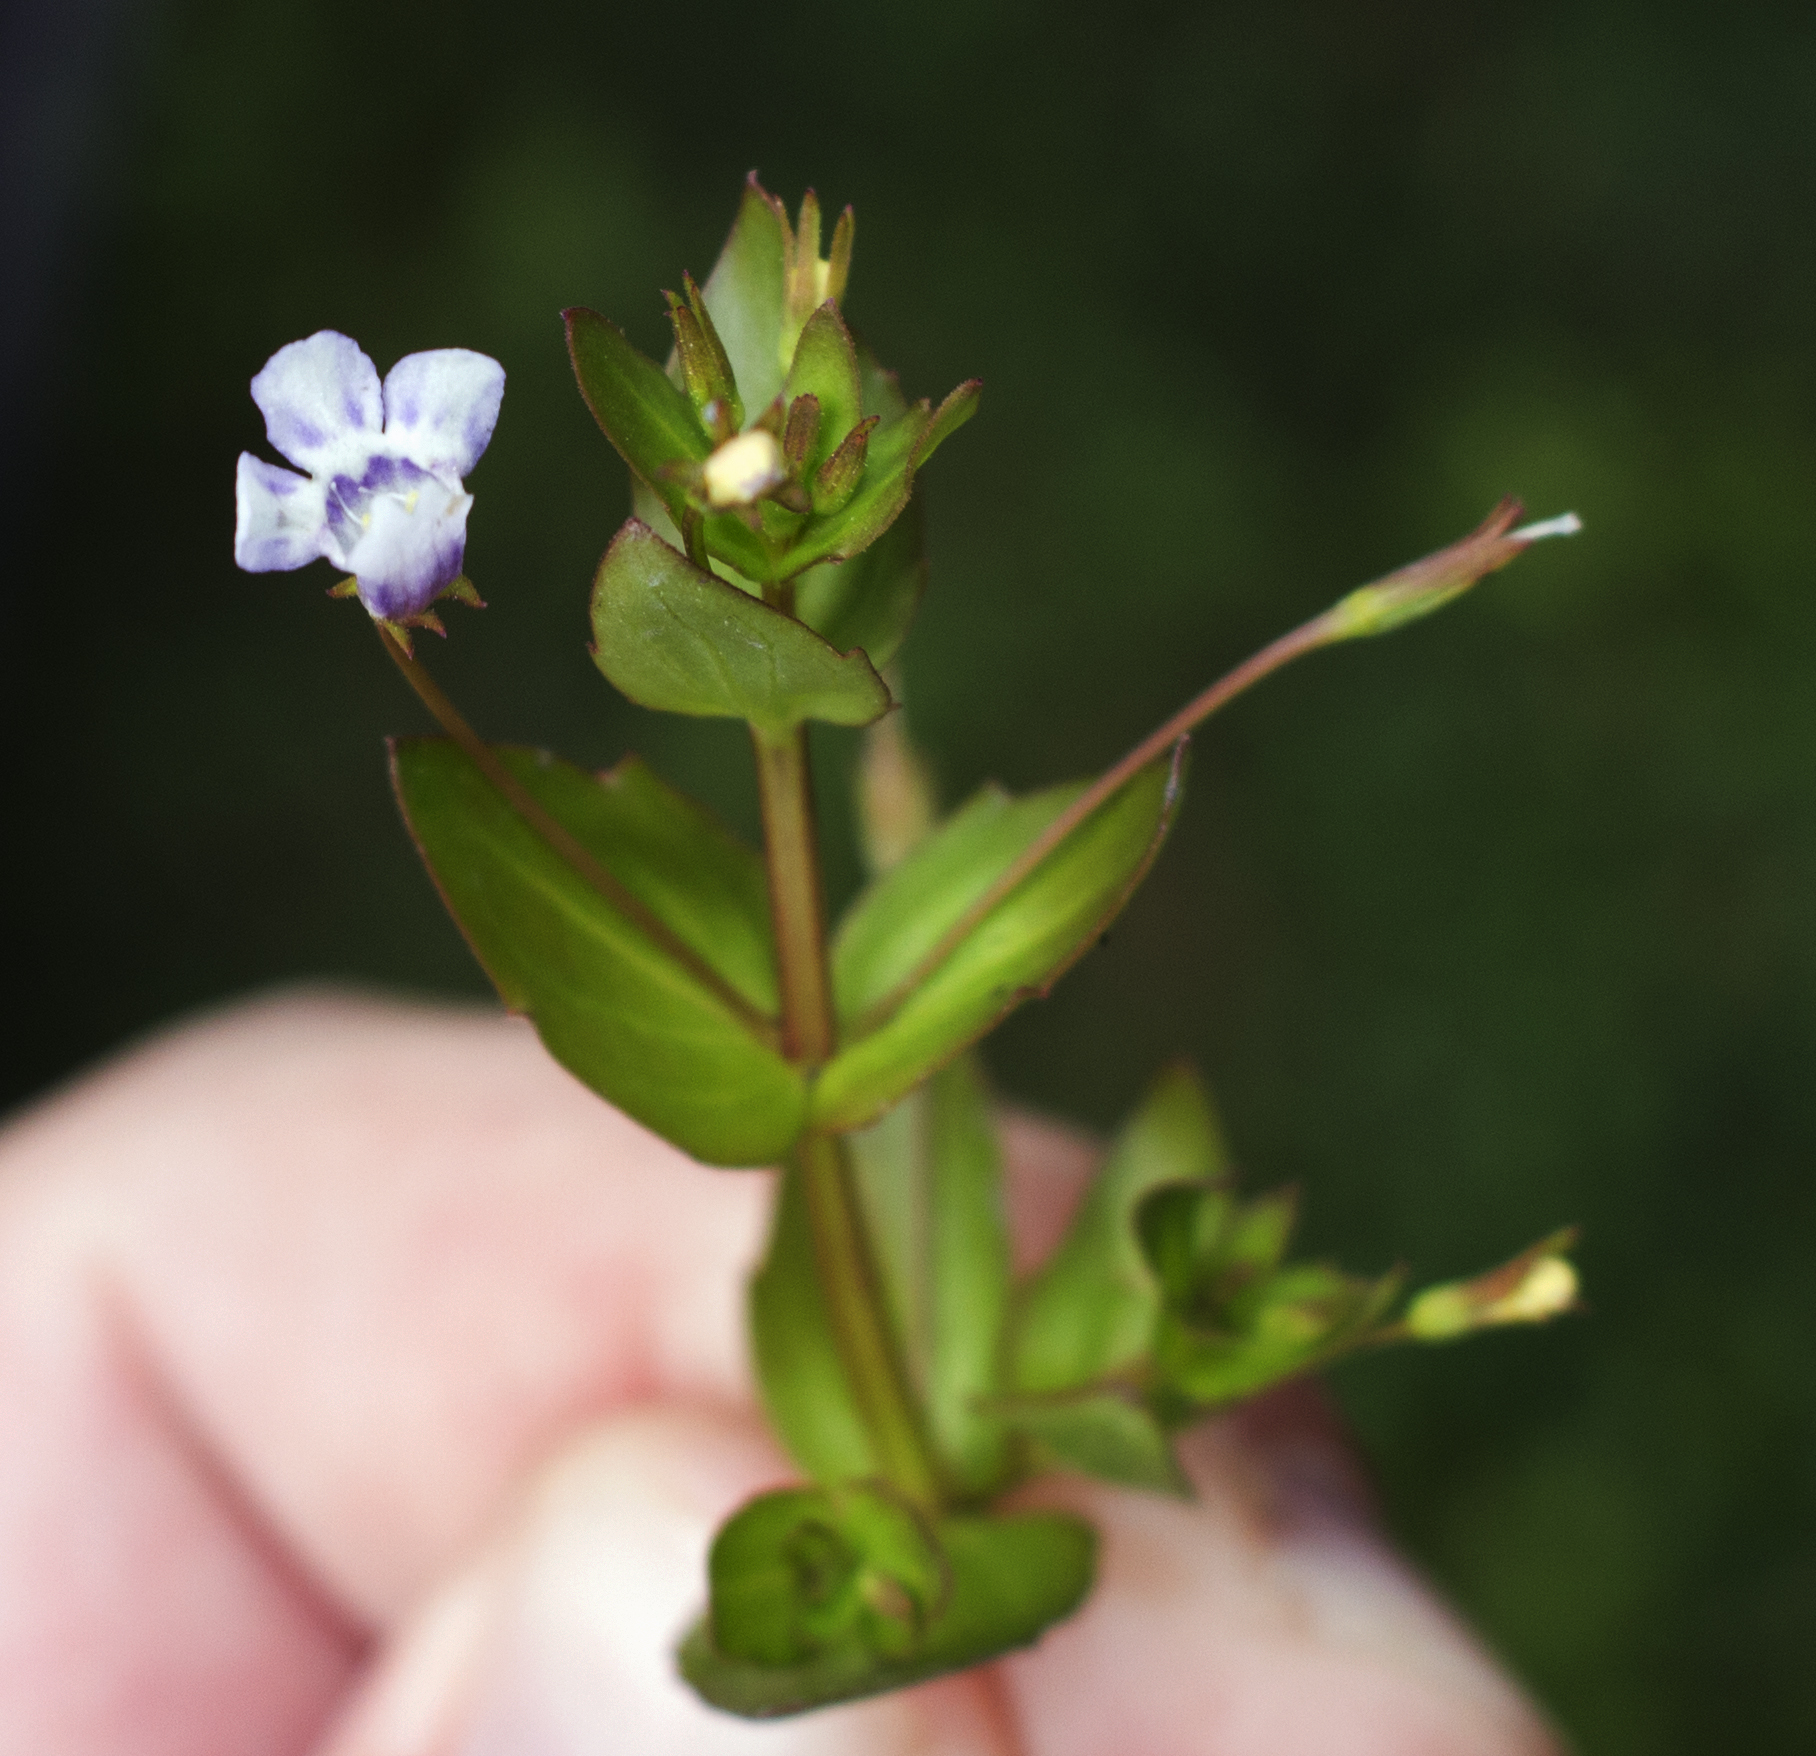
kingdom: Plantae
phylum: Tracheophyta
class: Magnoliopsida
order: Lamiales
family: Linderniaceae
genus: Lindernia
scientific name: Lindernia dubia
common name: Annual false pimpernel
